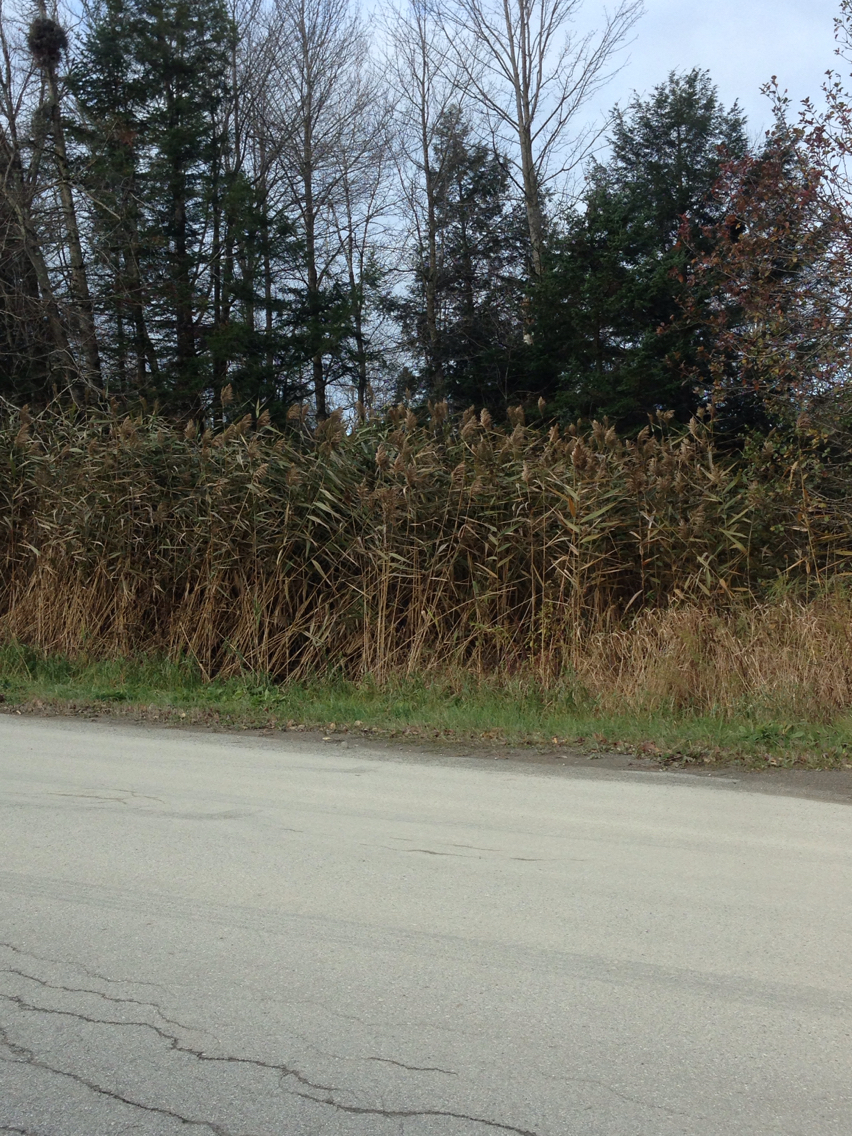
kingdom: Plantae
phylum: Tracheophyta
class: Liliopsida
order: Poales
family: Poaceae
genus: Phragmites
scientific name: Phragmites australis
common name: Common reed
